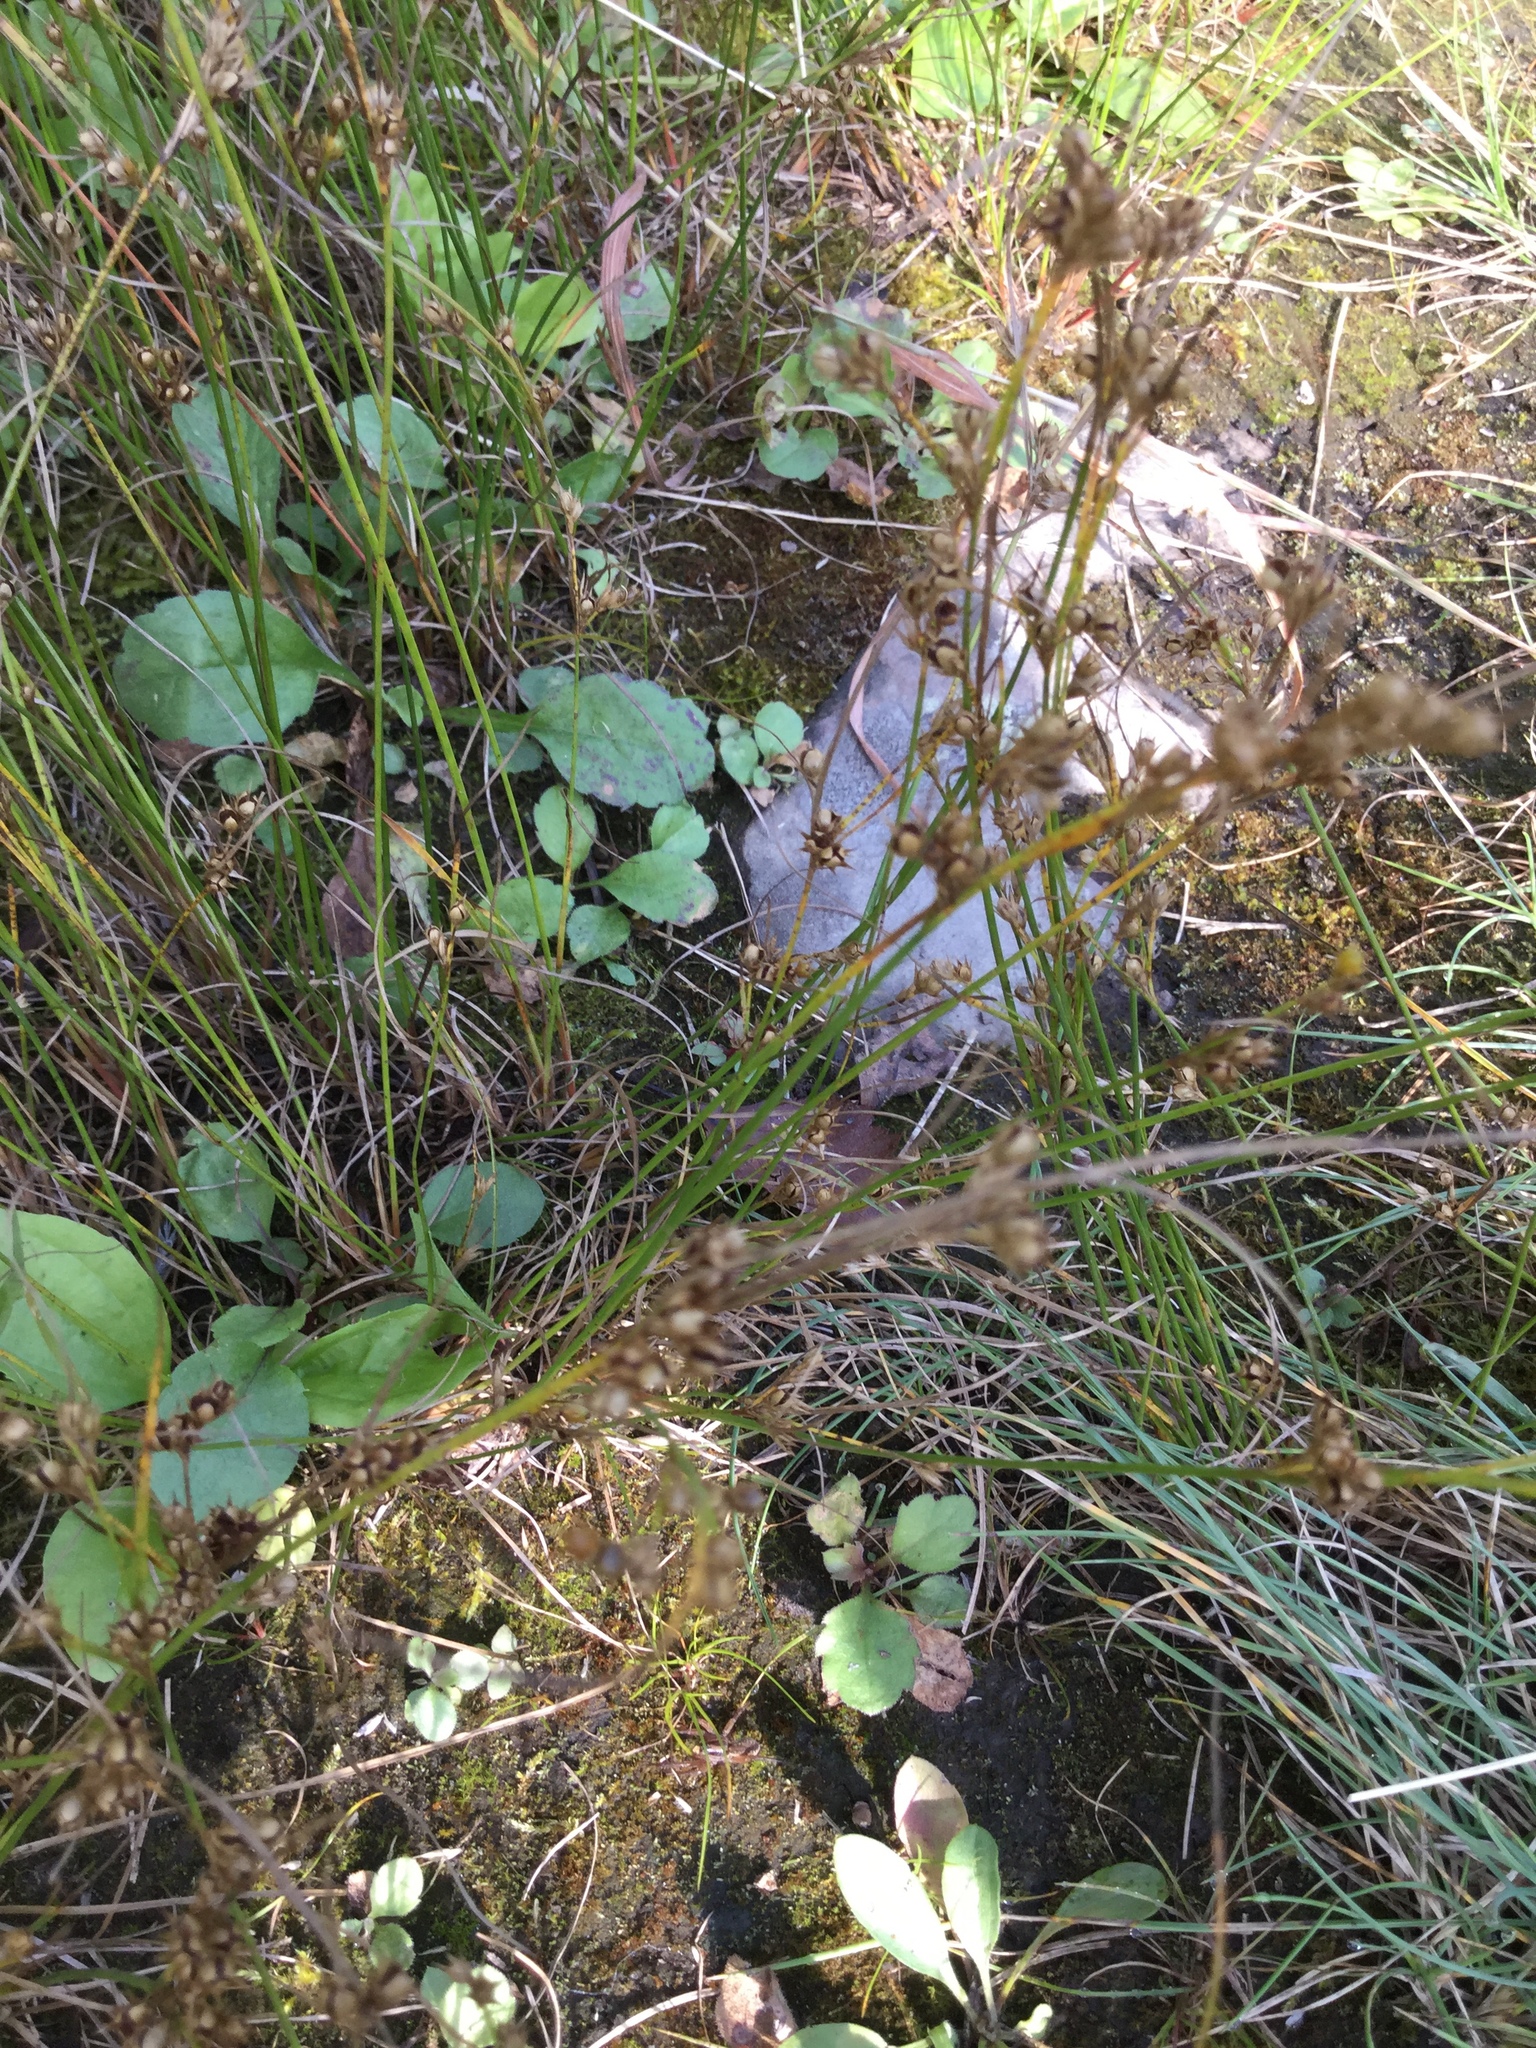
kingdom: Plantae
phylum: Tracheophyta
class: Liliopsida
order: Poales
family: Juncaceae
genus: Juncus
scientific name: Juncus tenuis
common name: Slender rush
